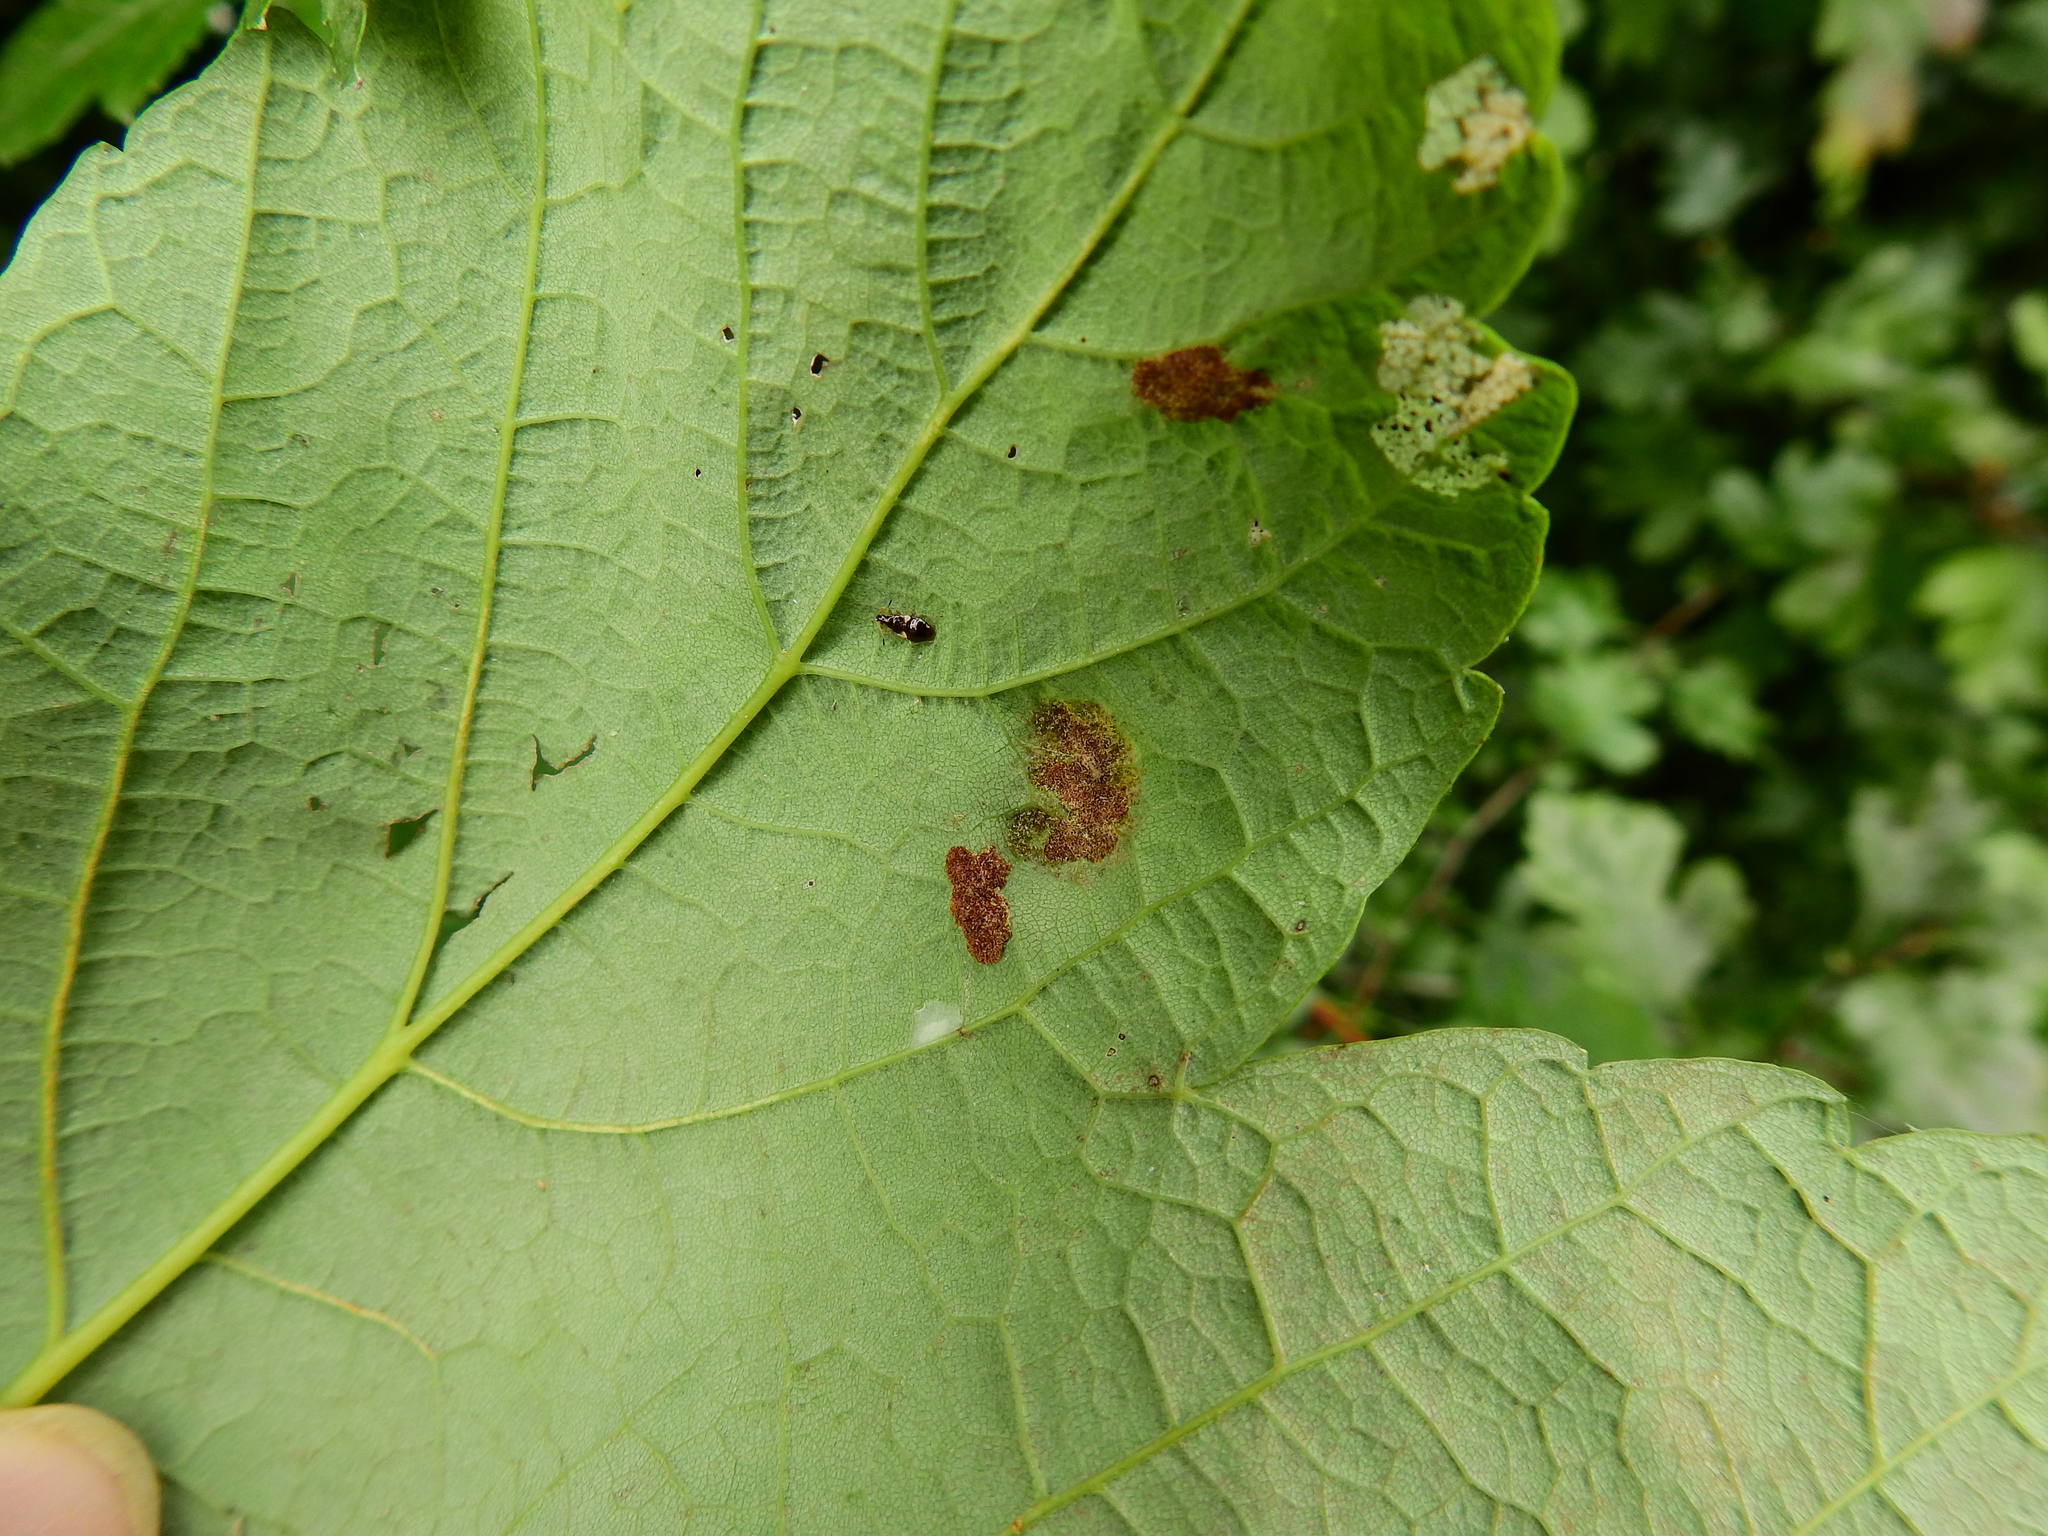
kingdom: Animalia
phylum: Arthropoda
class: Arachnida
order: Trombidiformes
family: Eriophyidae
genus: Aceria
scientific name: Aceria pseudoplatani
